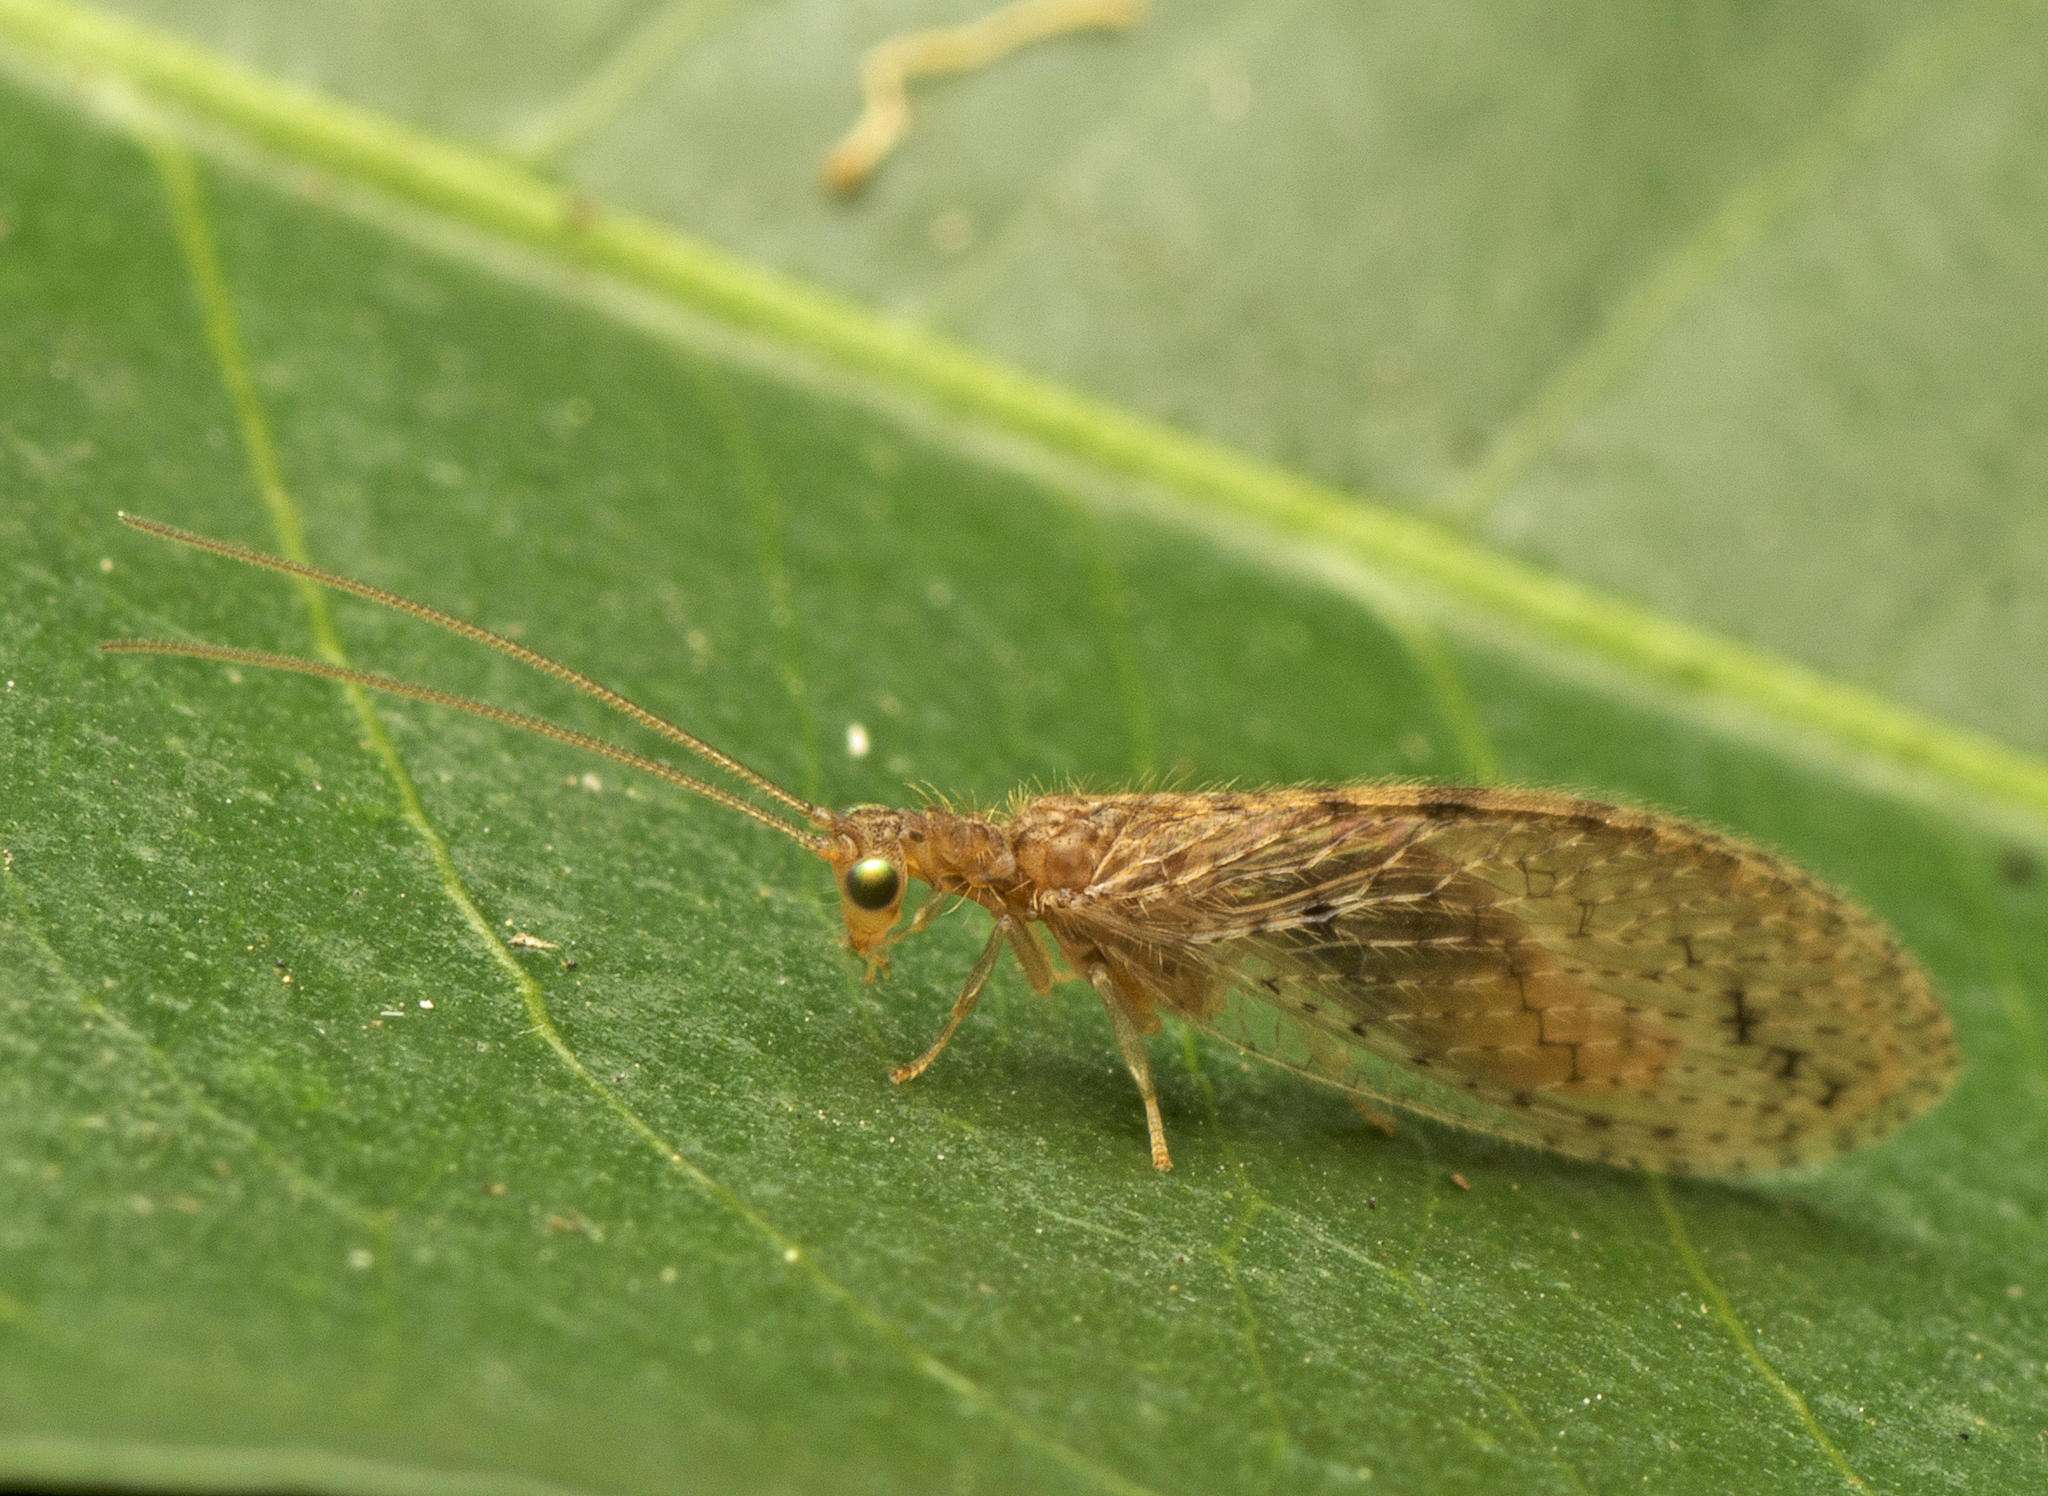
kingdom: Animalia
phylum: Arthropoda
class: Insecta
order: Neuroptera
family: Hemerobiidae
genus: Micromus
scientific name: Micromus tasmaniae
